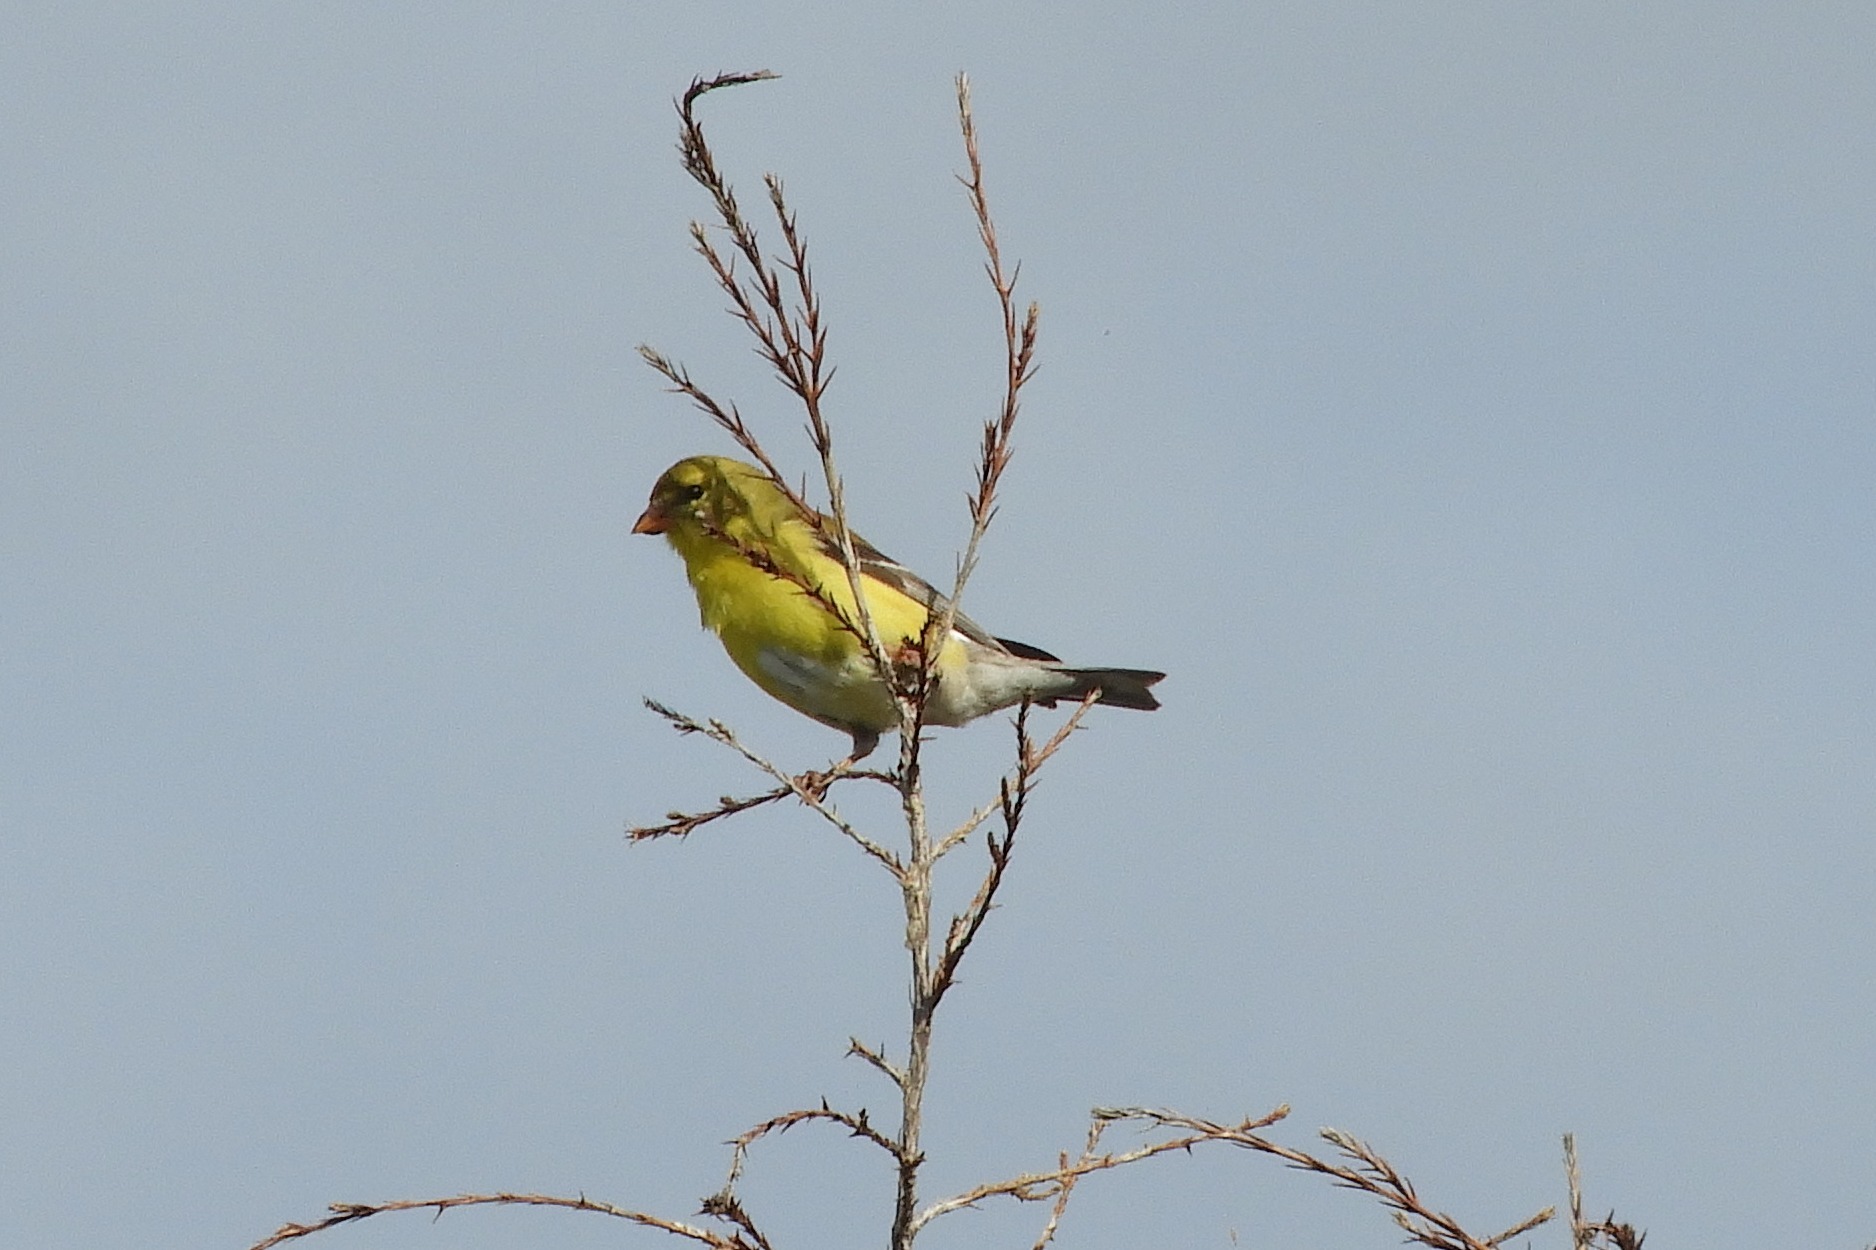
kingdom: Animalia
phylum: Chordata
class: Aves
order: Passeriformes
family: Fringillidae
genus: Spinus
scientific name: Spinus tristis
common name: American goldfinch
